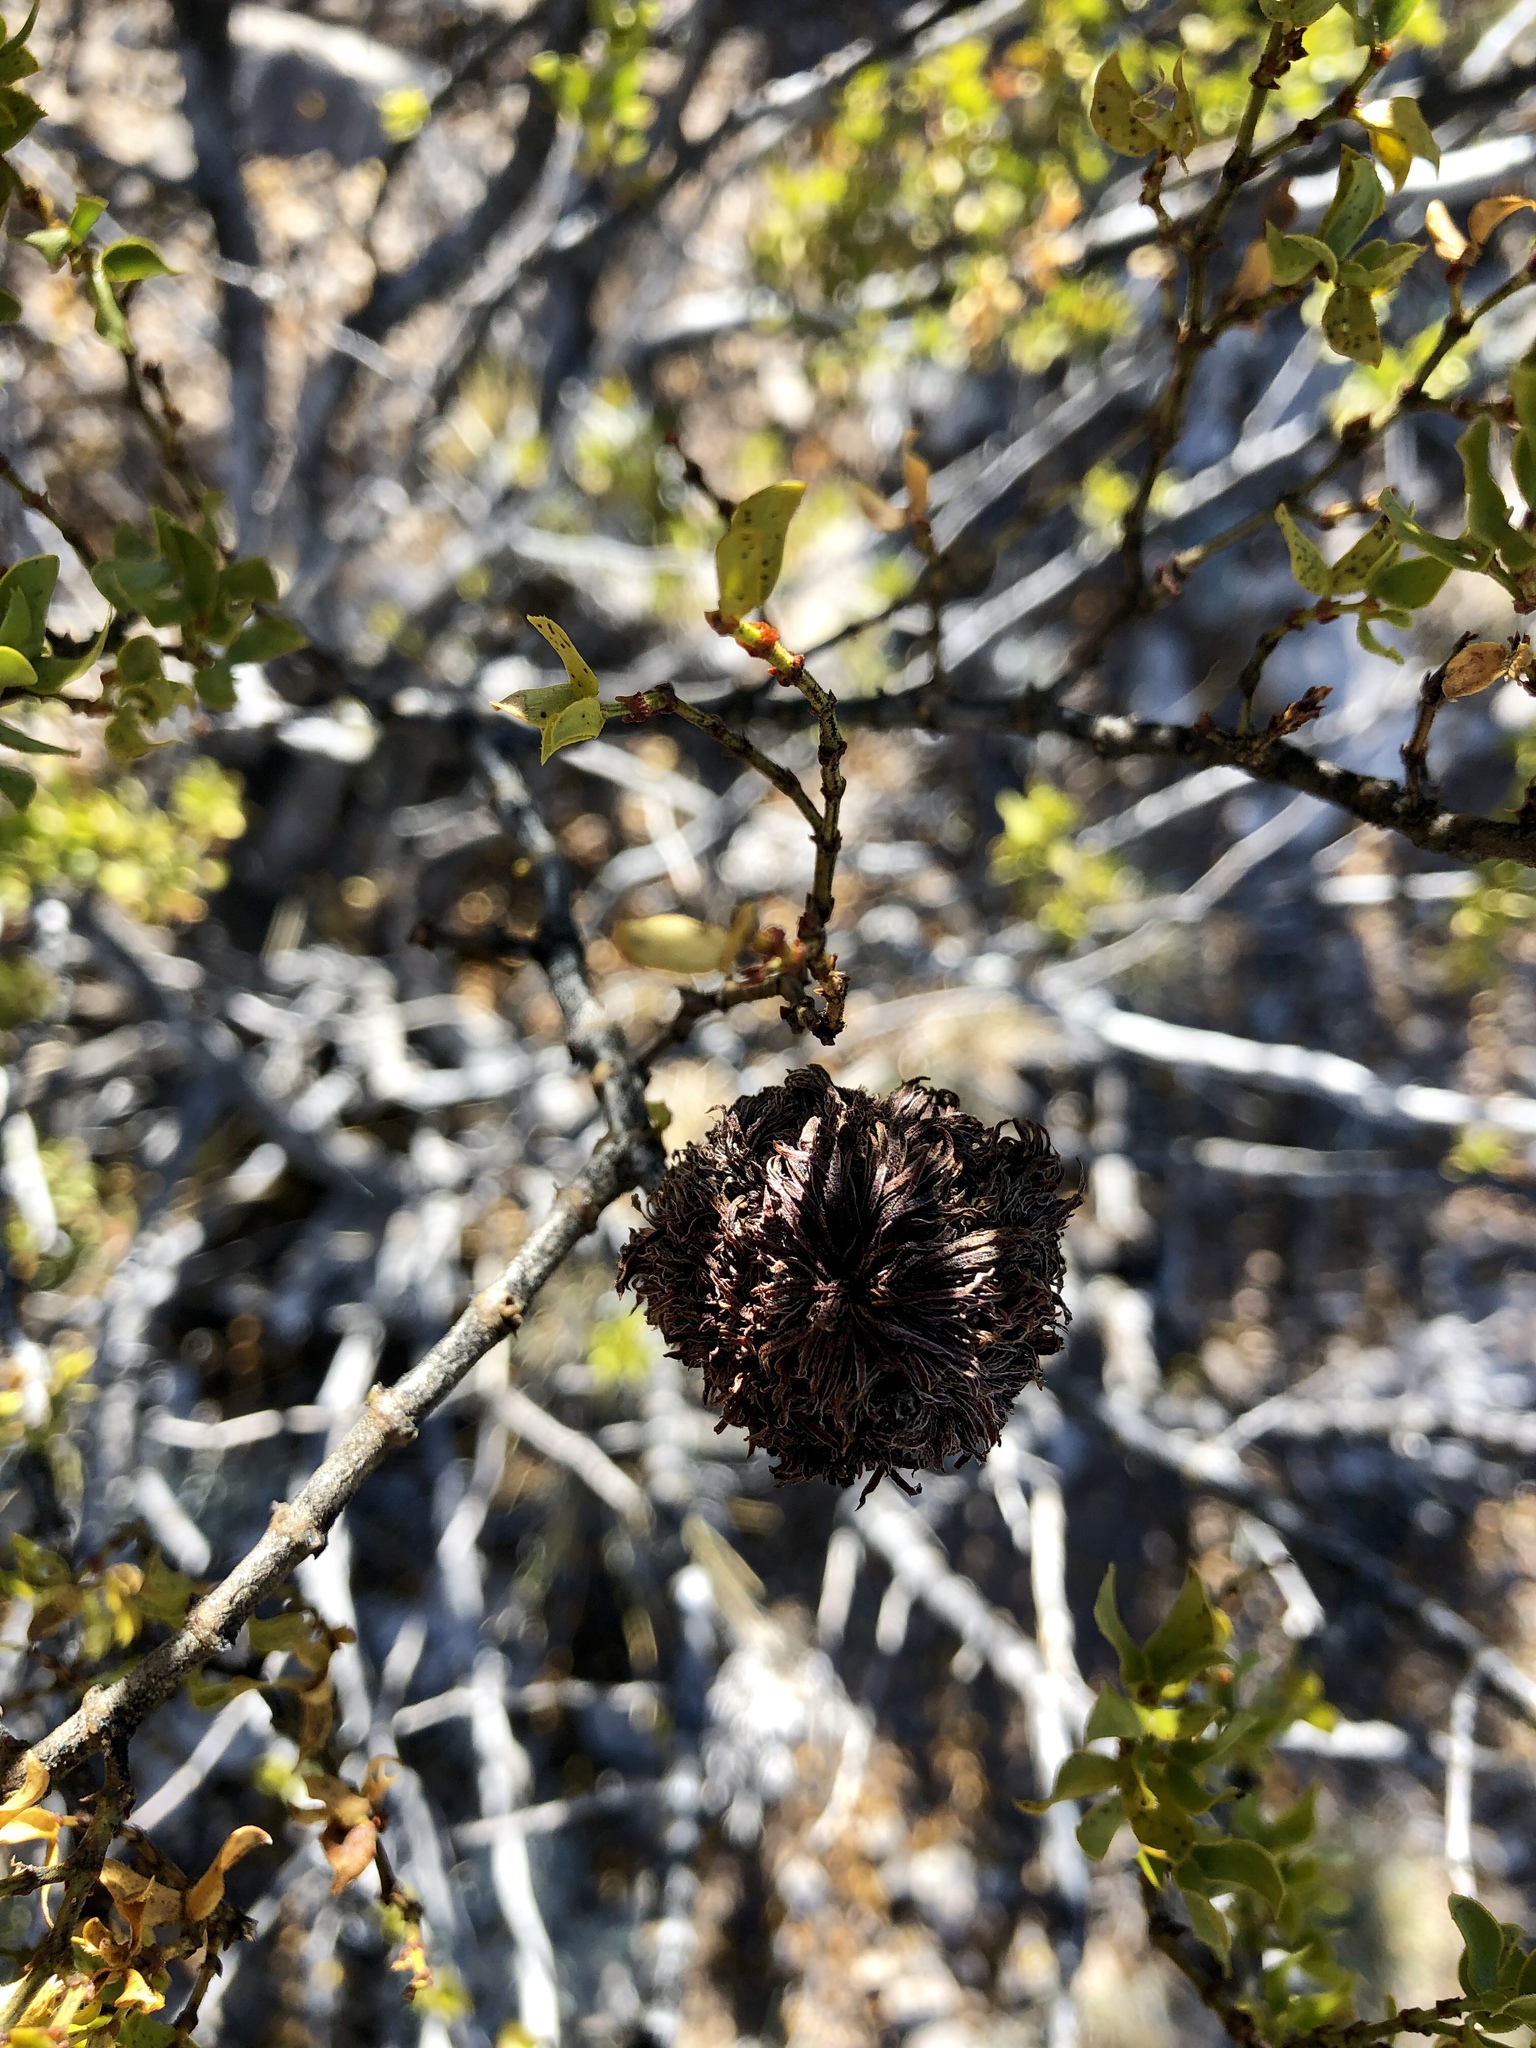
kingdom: Animalia
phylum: Arthropoda
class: Insecta
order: Diptera
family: Cecidomyiidae
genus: Asphondylia
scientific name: Asphondylia auripila
